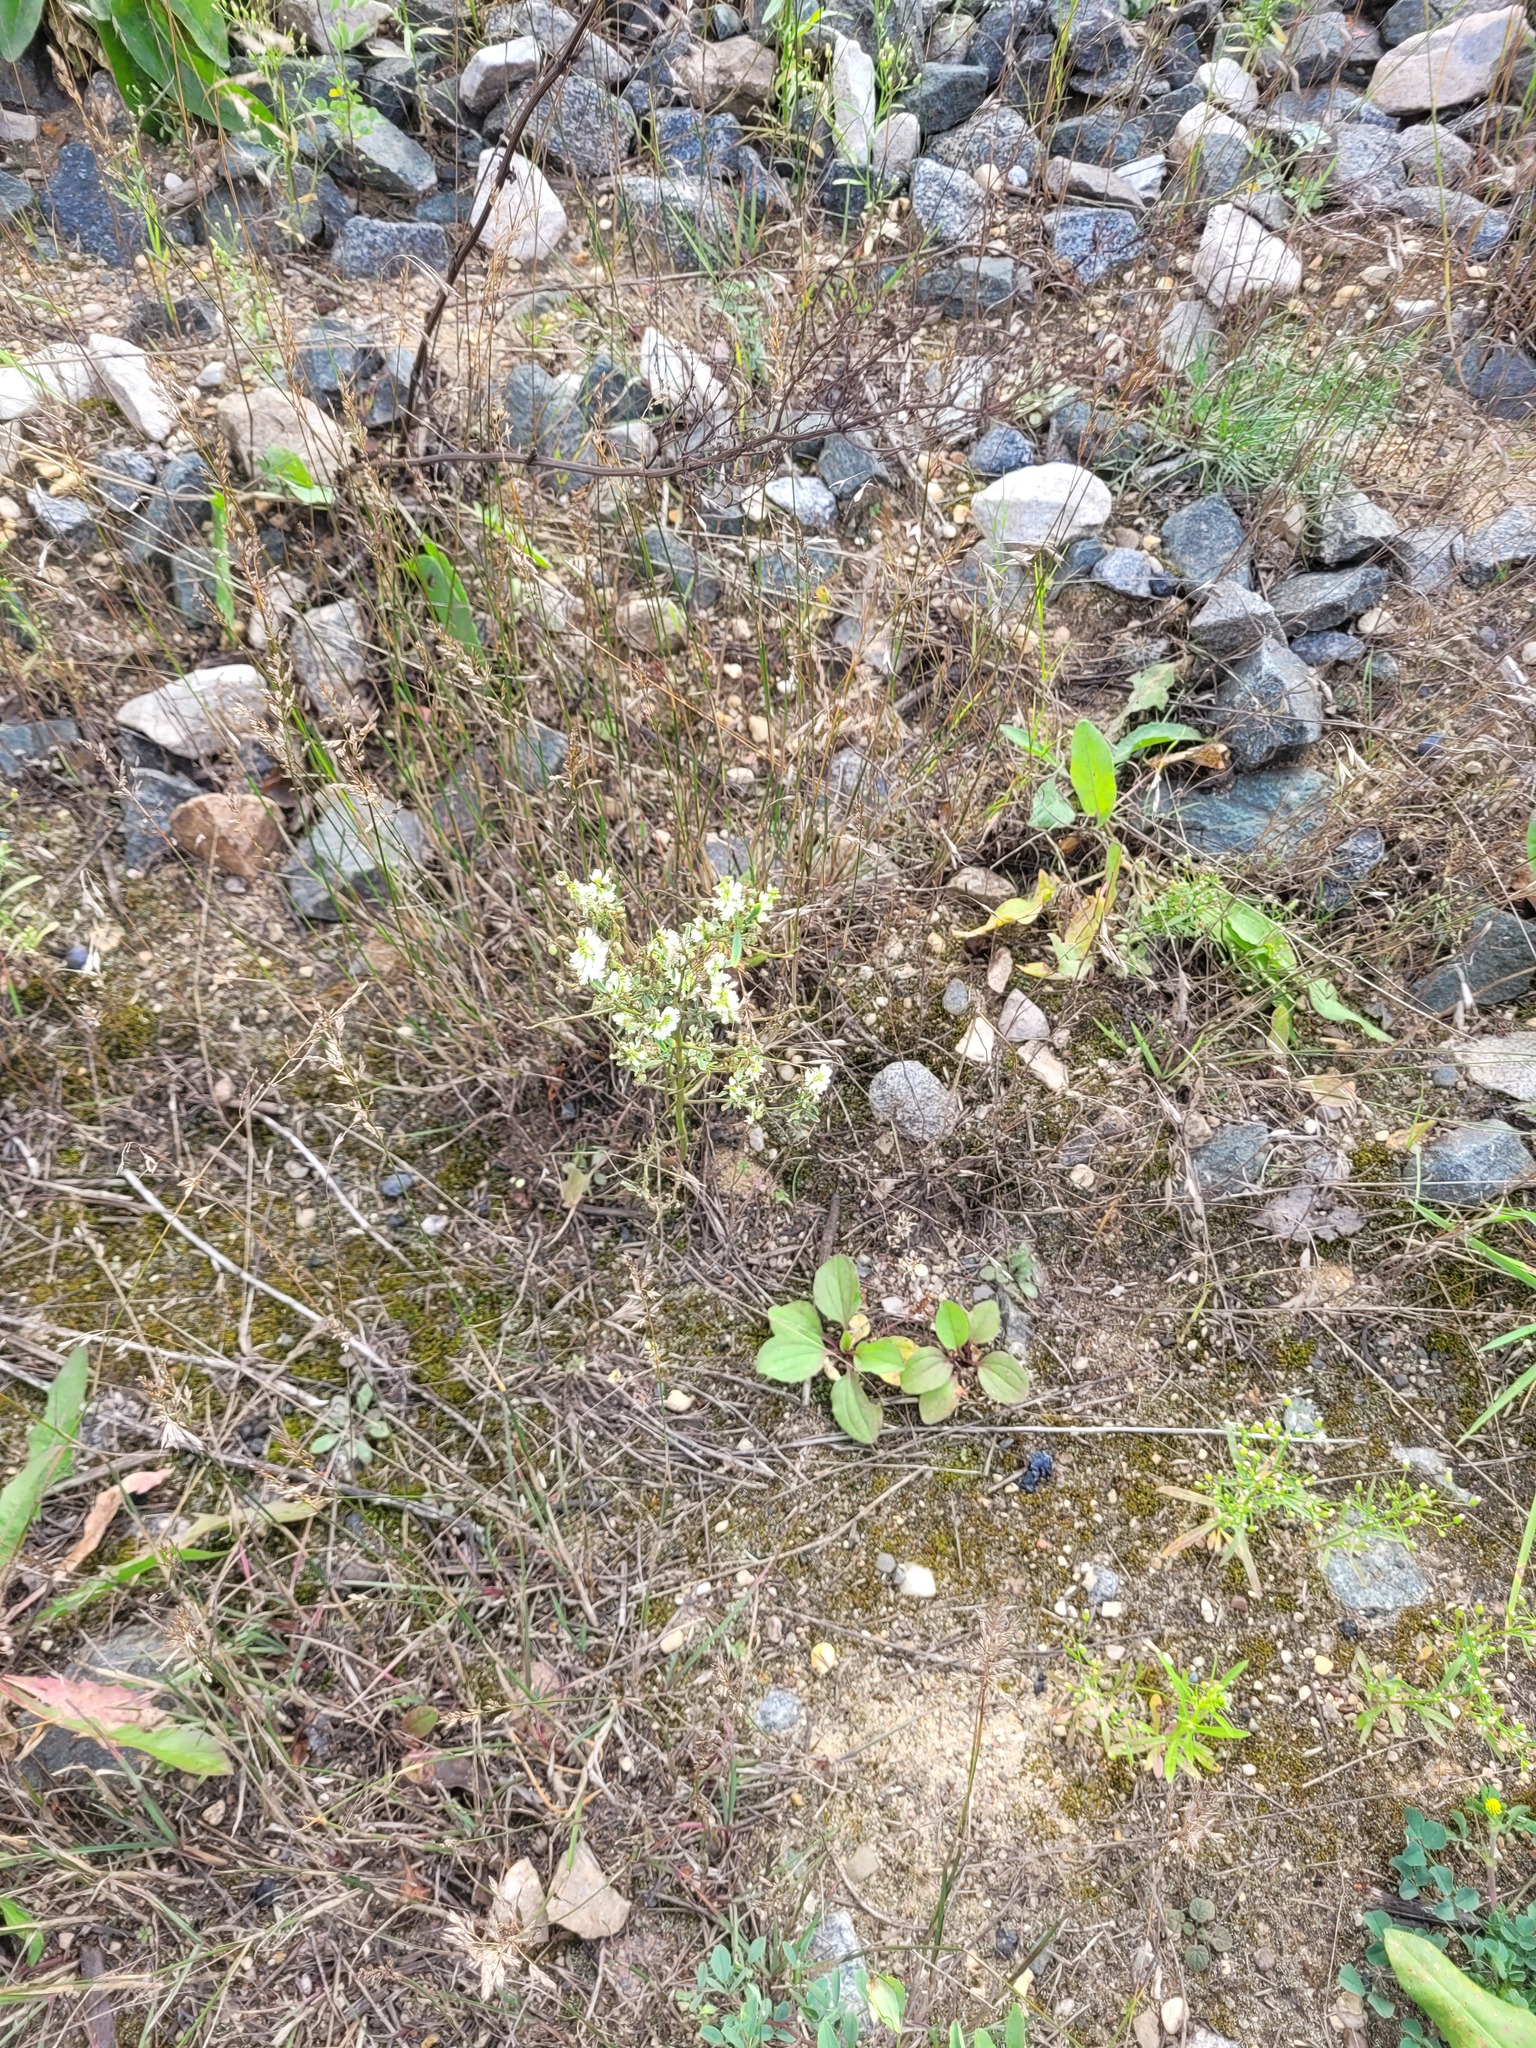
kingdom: Plantae
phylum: Tracheophyta
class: Magnoliopsida
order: Fabales
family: Fabaceae
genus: Melilotus
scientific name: Melilotus albus
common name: White melilot
